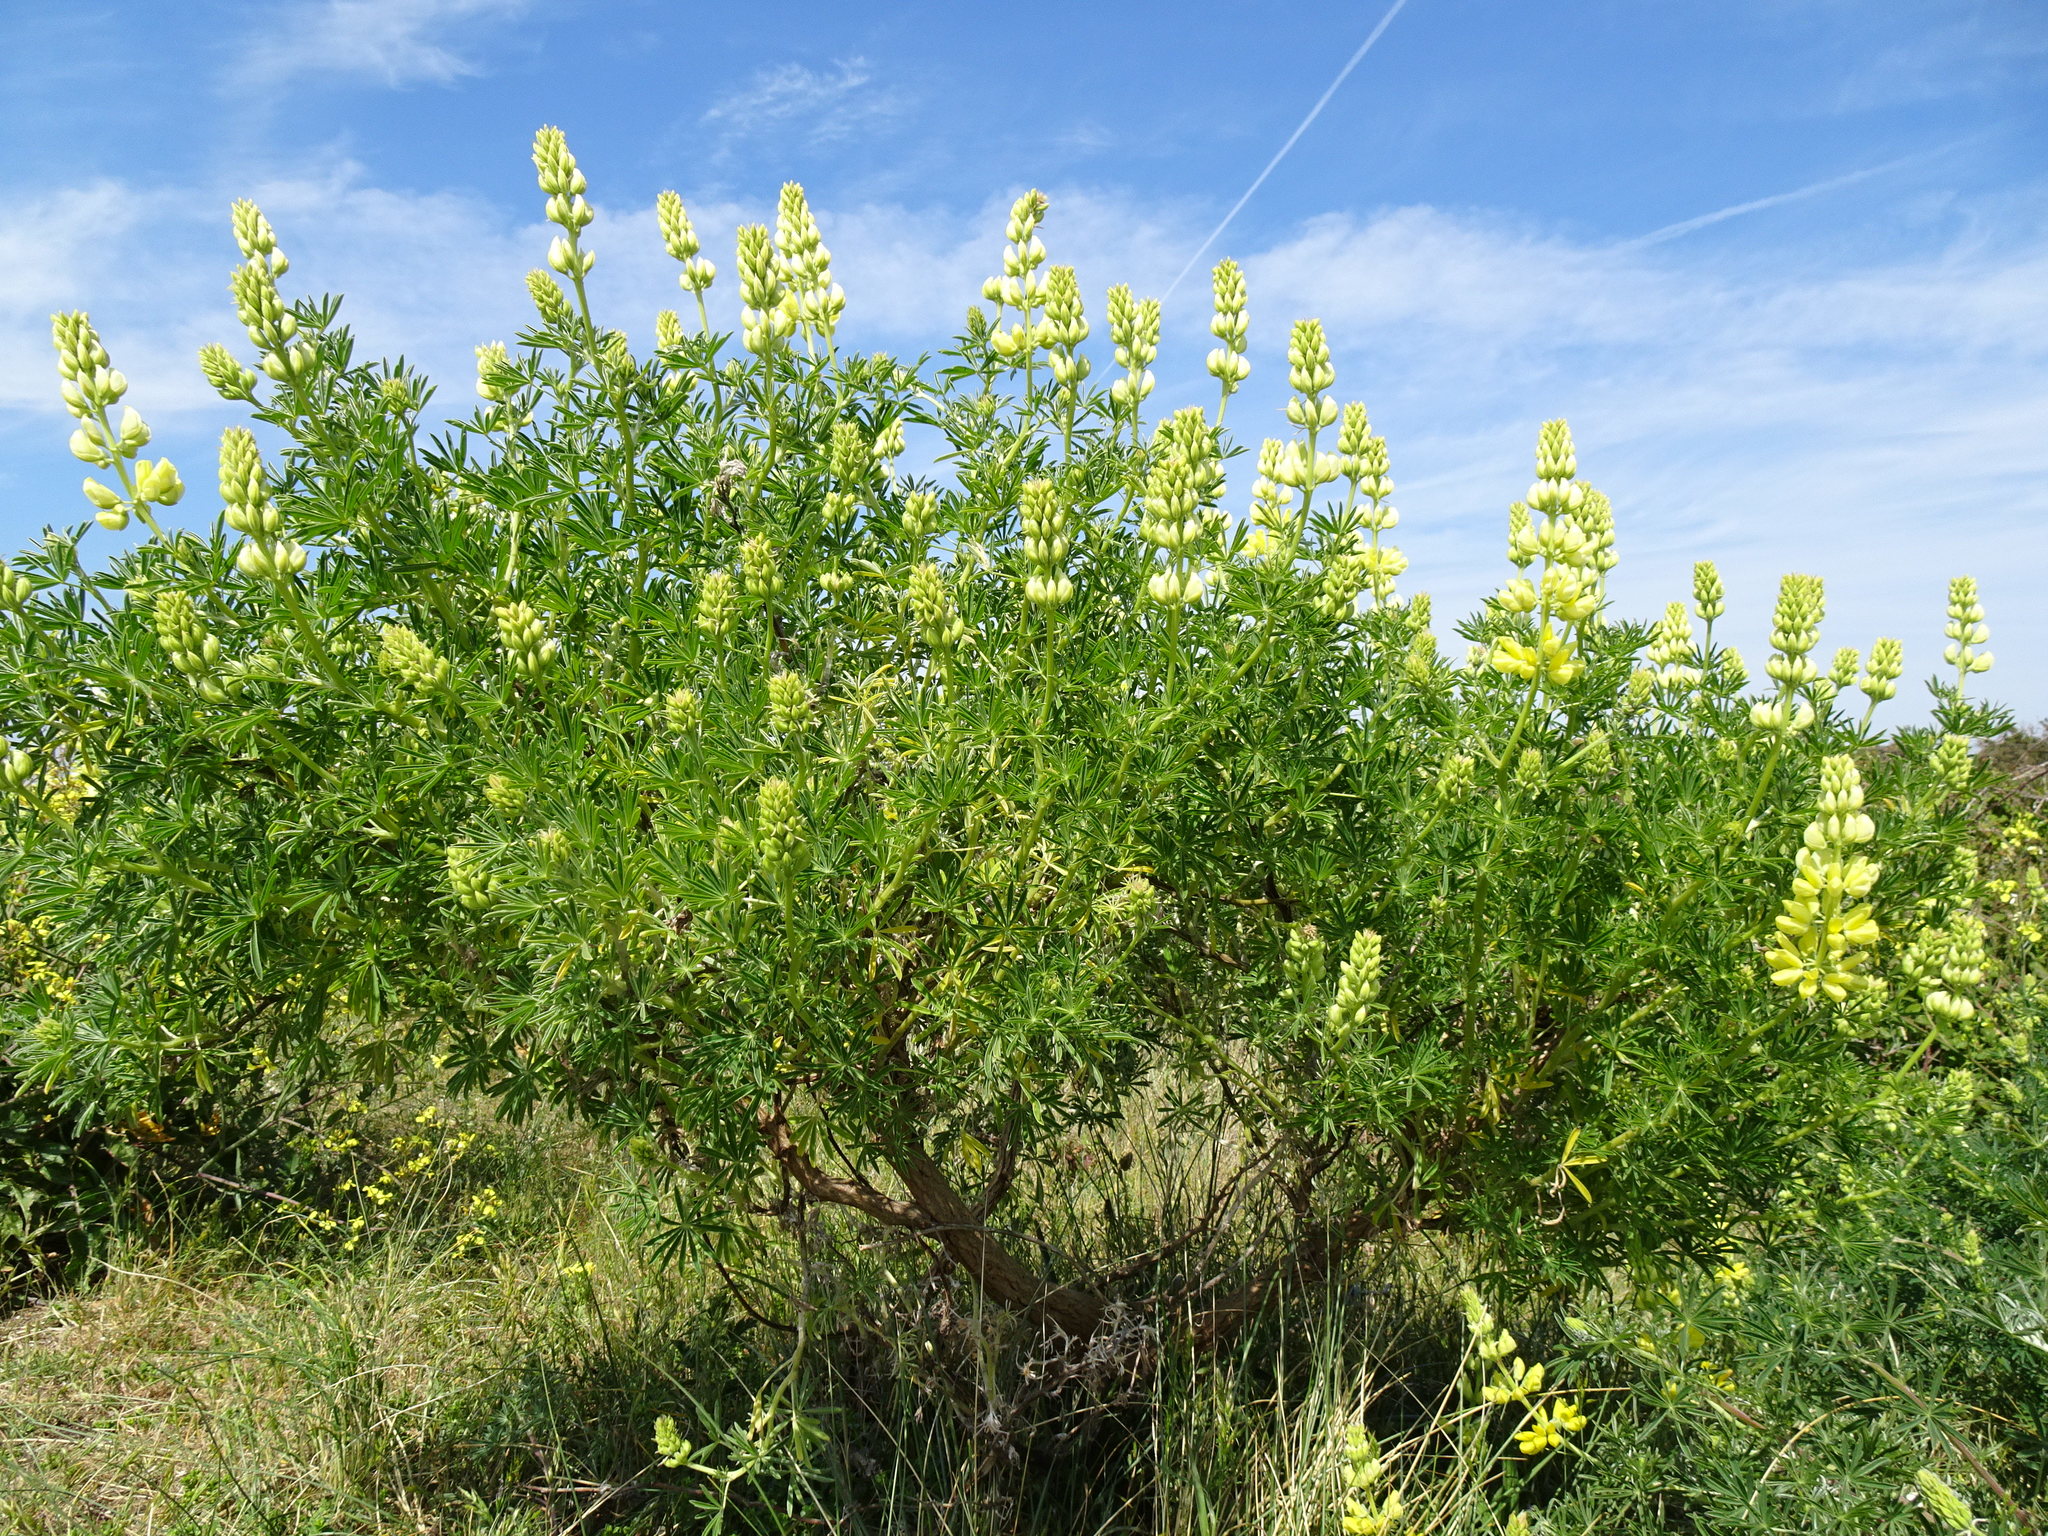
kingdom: Plantae
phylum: Tracheophyta
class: Magnoliopsida
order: Fabales
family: Fabaceae
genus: Lupinus
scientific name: Lupinus arboreus
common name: Yellow bush lupine
